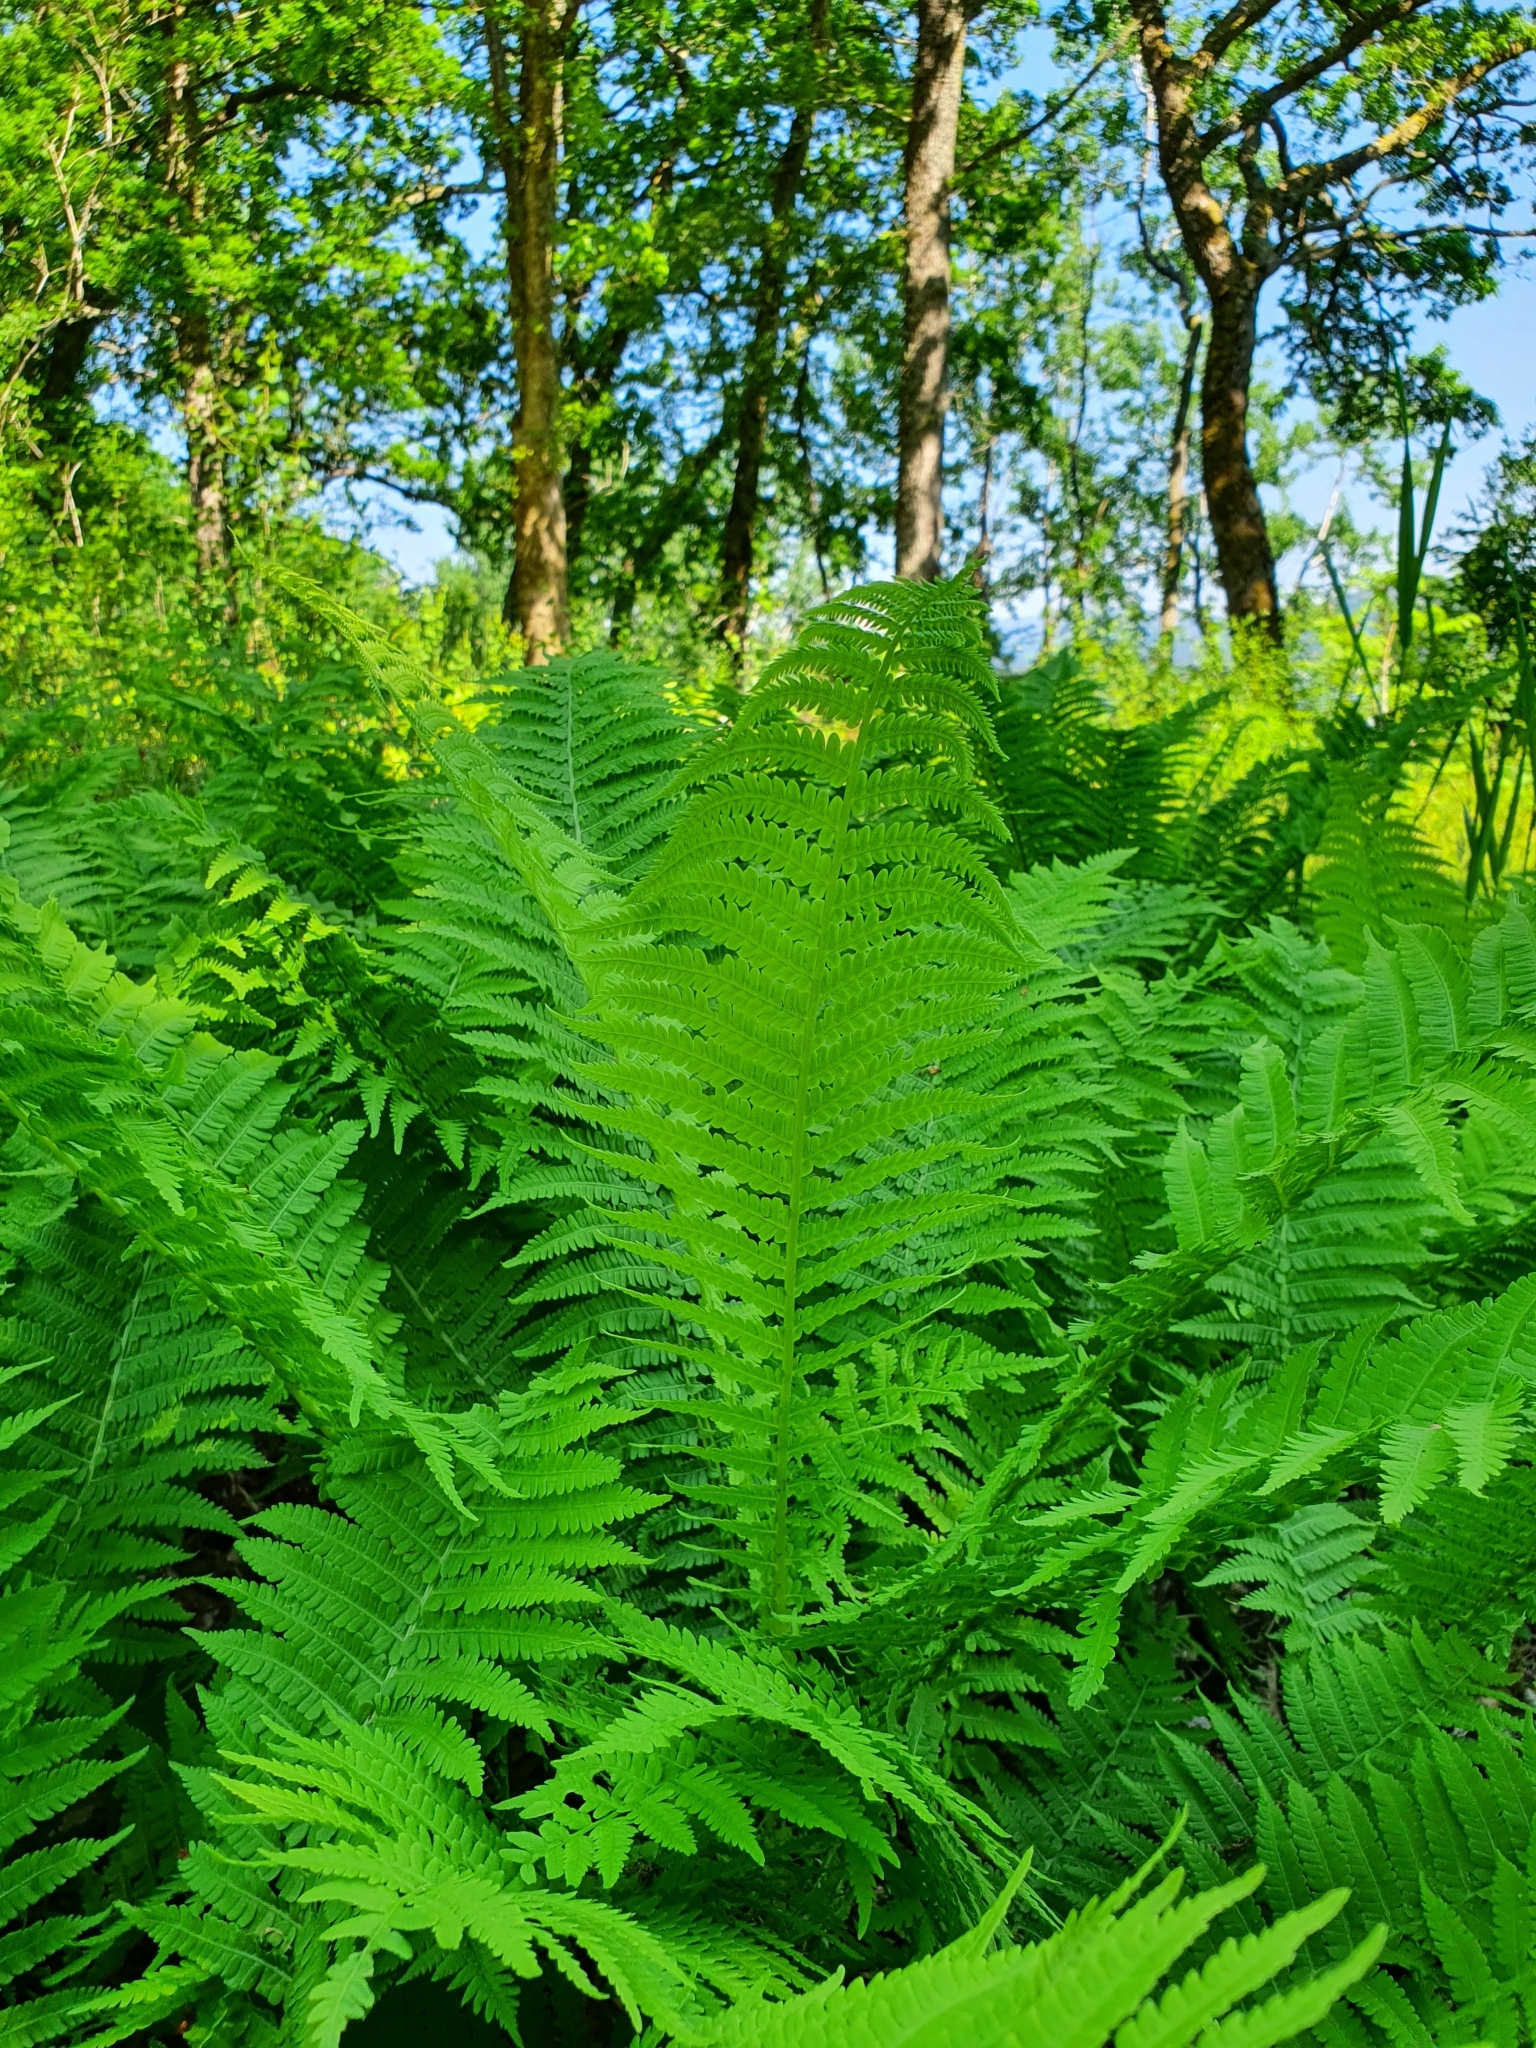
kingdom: Plantae
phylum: Tracheophyta
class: Polypodiopsida
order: Polypodiales
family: Onocleaceae
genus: Matteuccia
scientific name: Matteuccia struthiopteris
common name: Ostrich fern
